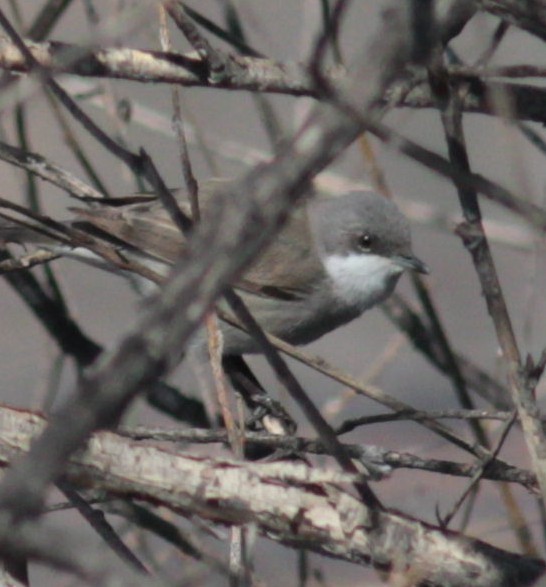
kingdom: Animalia
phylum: Chordata
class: Aves
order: Passeriformes
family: Sylviidae
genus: Sylvia
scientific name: Sylvia curruca
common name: Lesser whitethroat
